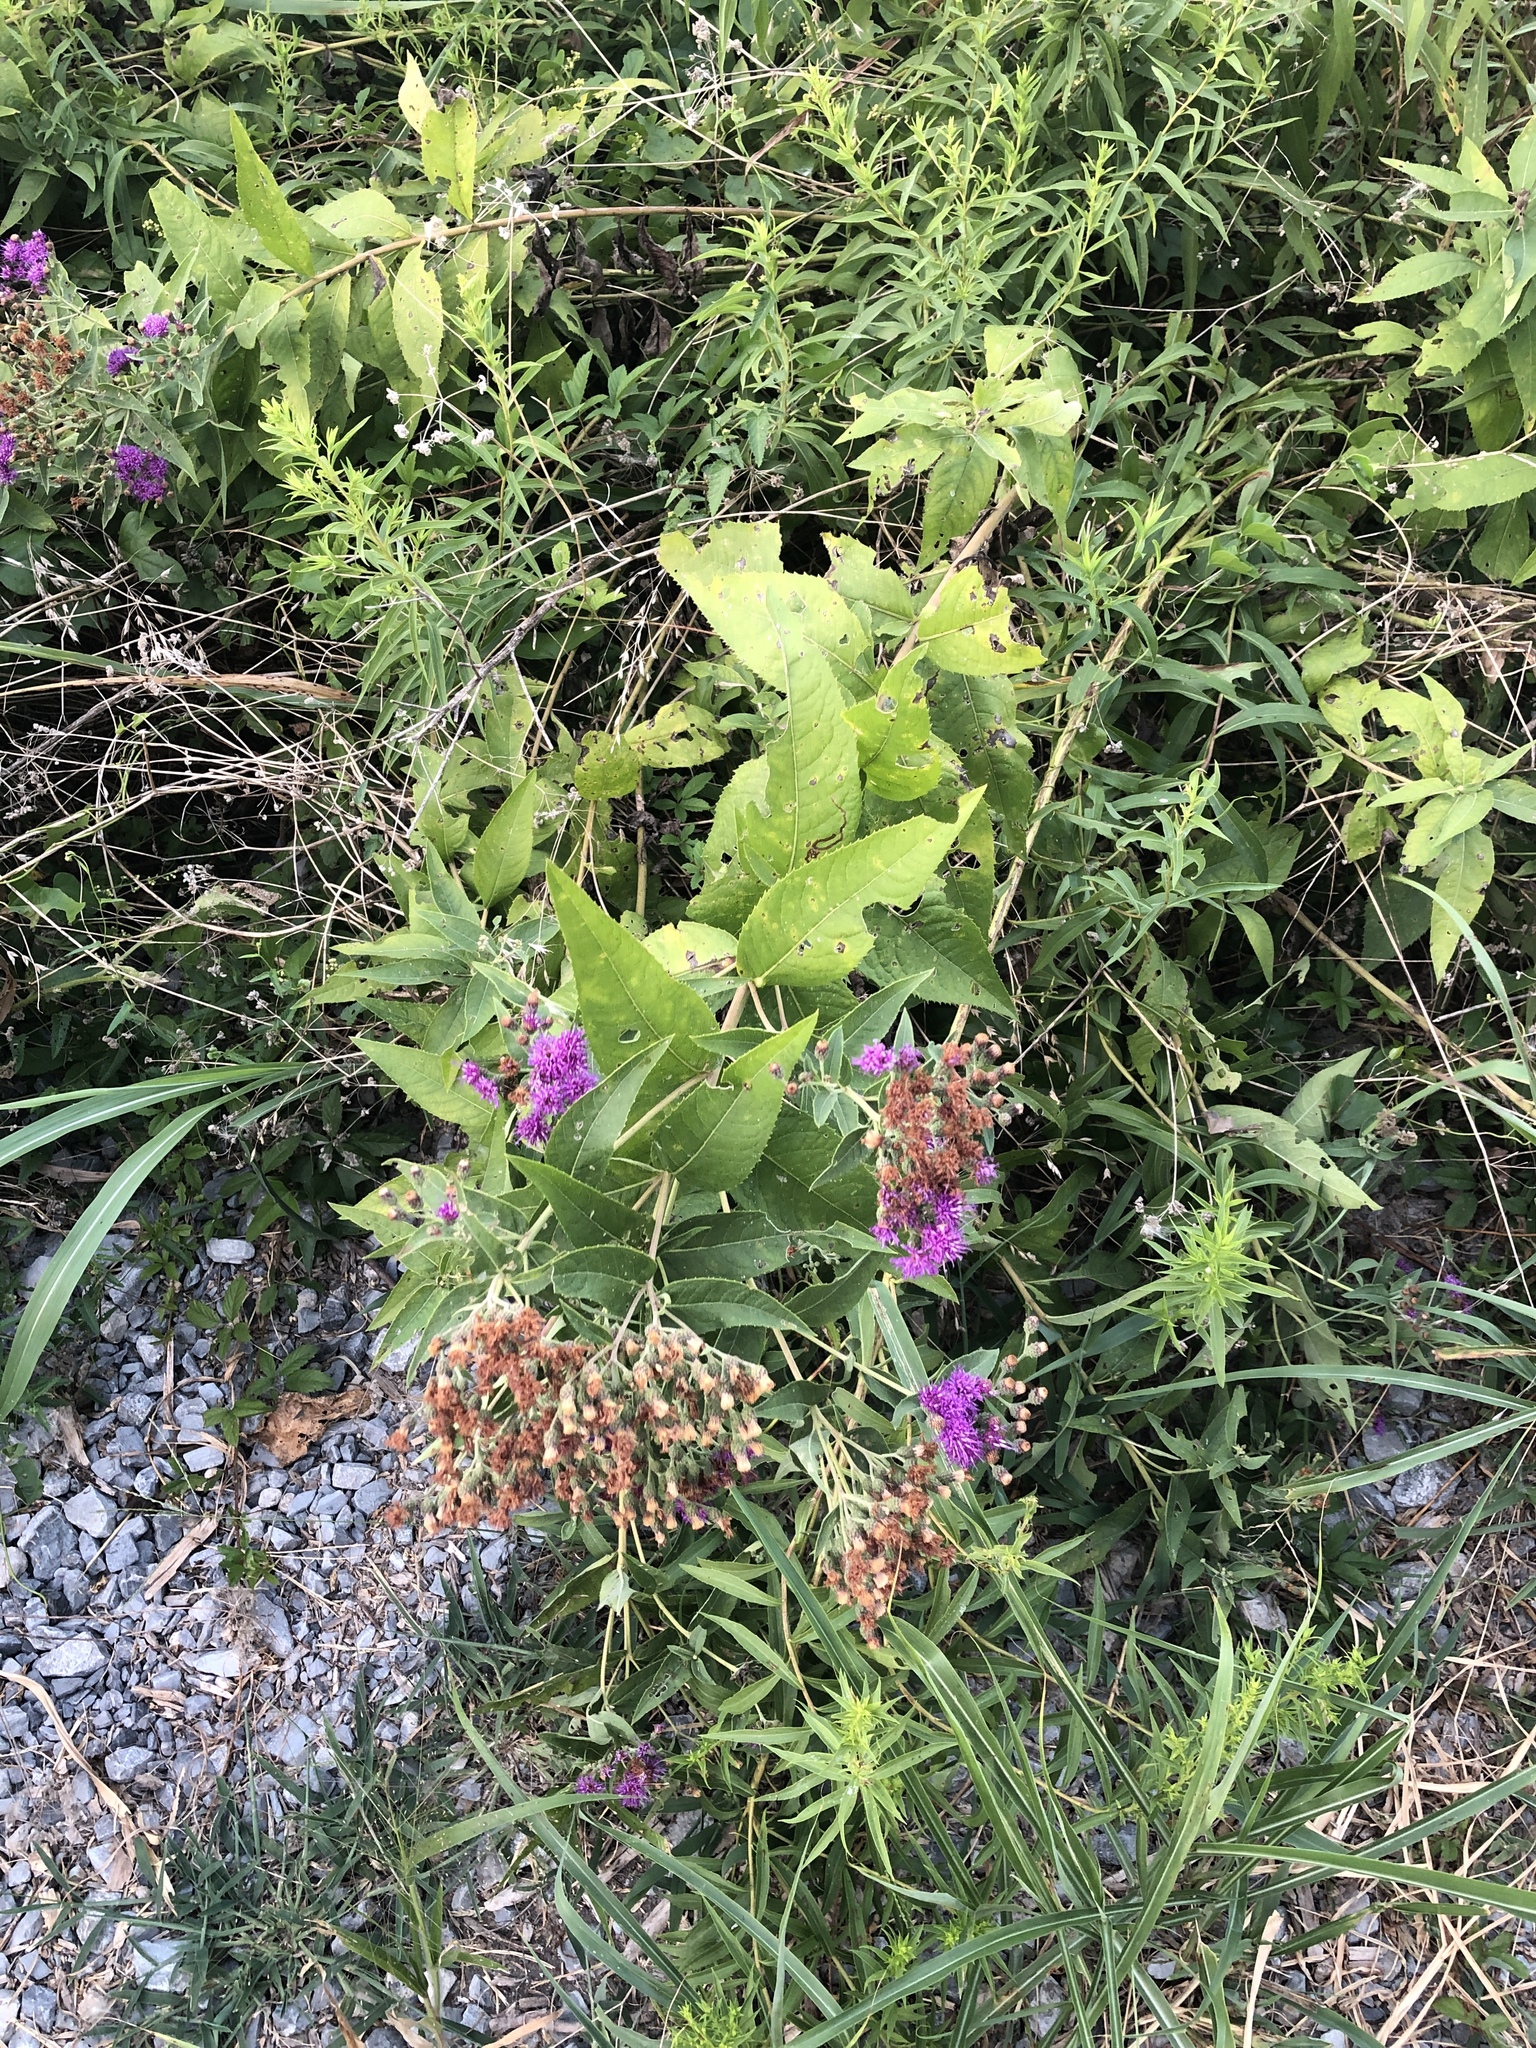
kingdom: Plantae
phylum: Tracheophyta
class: Magnoliopsida
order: Asterales
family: Asteraceae
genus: Vernonia
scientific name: Vernonia baldwinii
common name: Western ironweed
